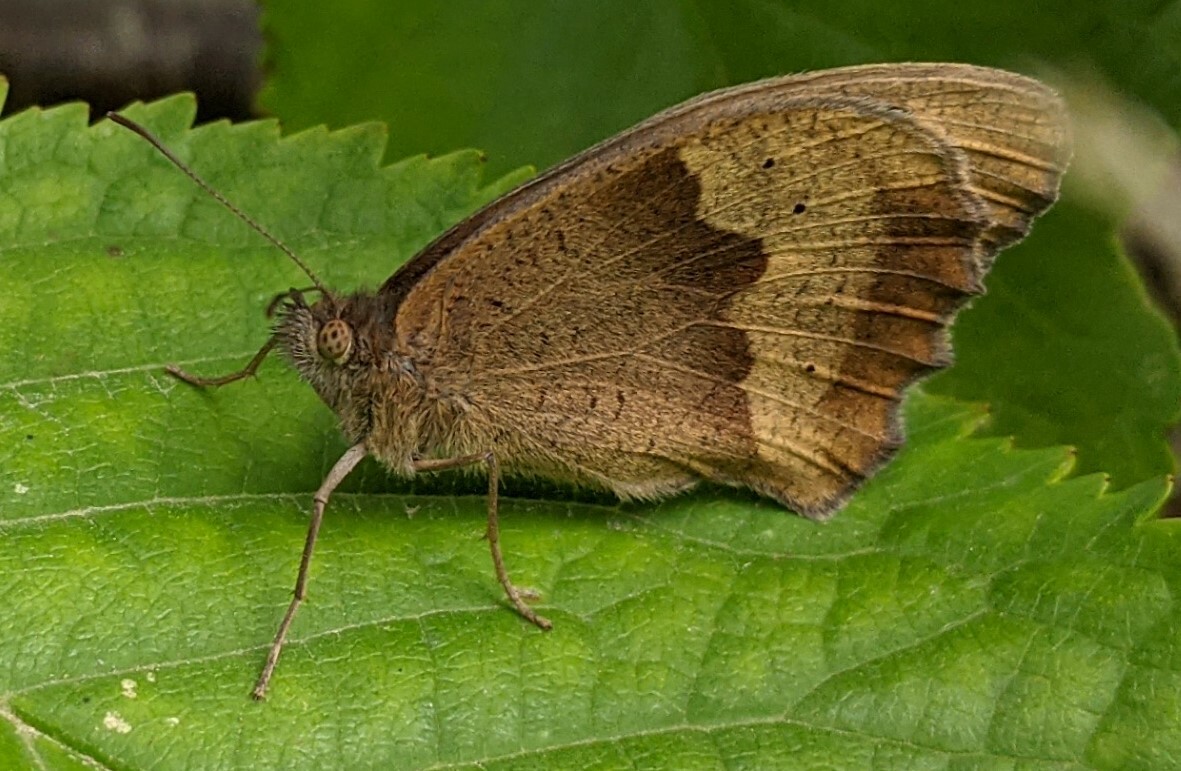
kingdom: Animalia
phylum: Arthropoda
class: Insecta
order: Lepidoptera
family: Nymphalidae
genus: Maniola
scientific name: Maniola jurtina
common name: Meadow brown
